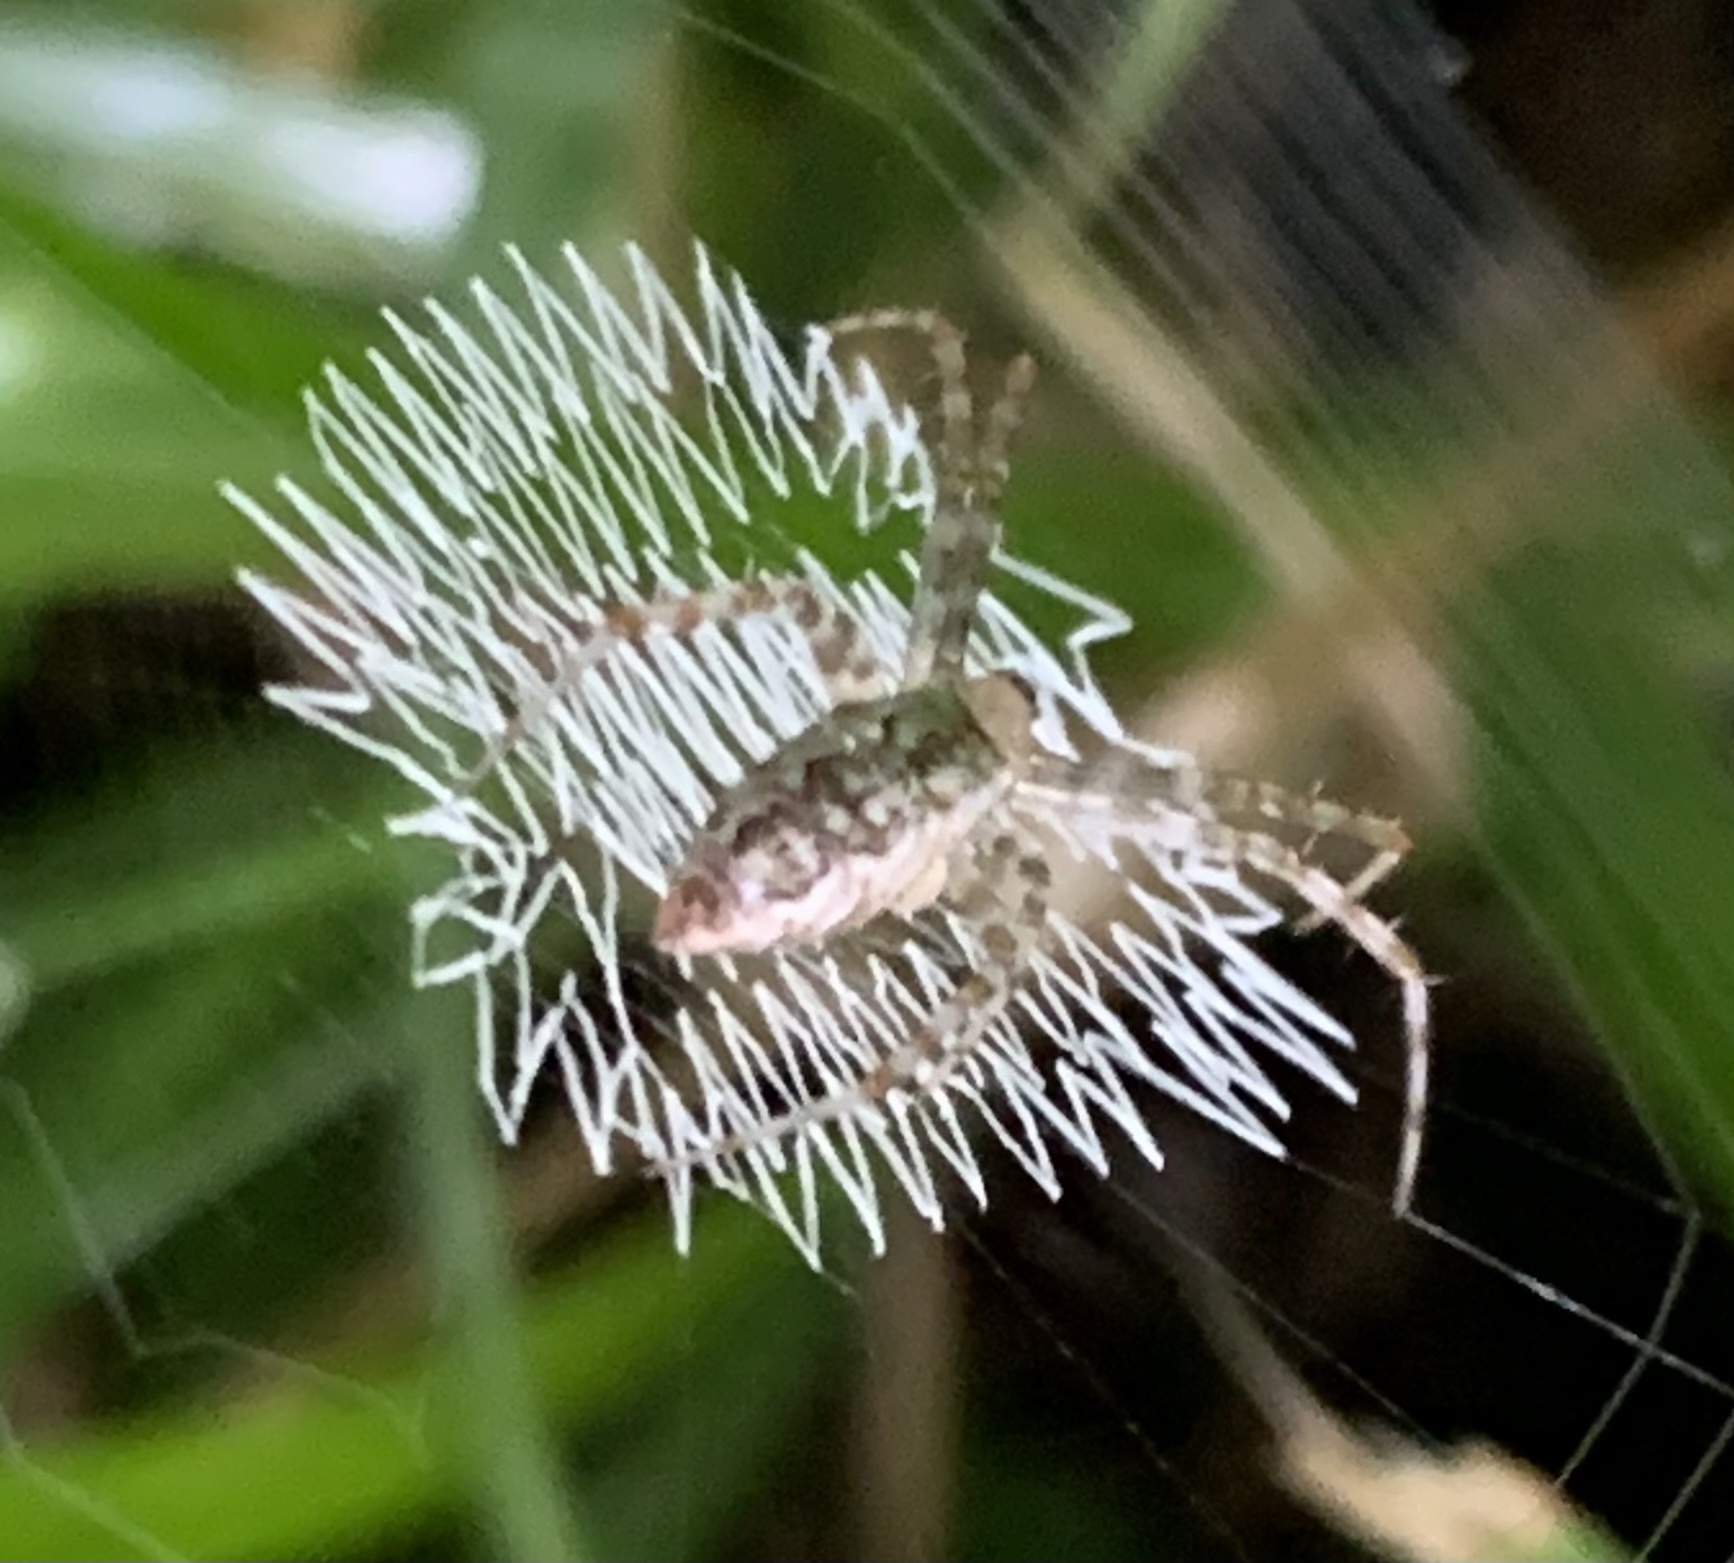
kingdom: Animalia
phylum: Arthropoda
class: Arachnida
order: Araneae
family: Araneidae
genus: Argiope
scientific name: Argiope aurantia
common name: Orb weavers
